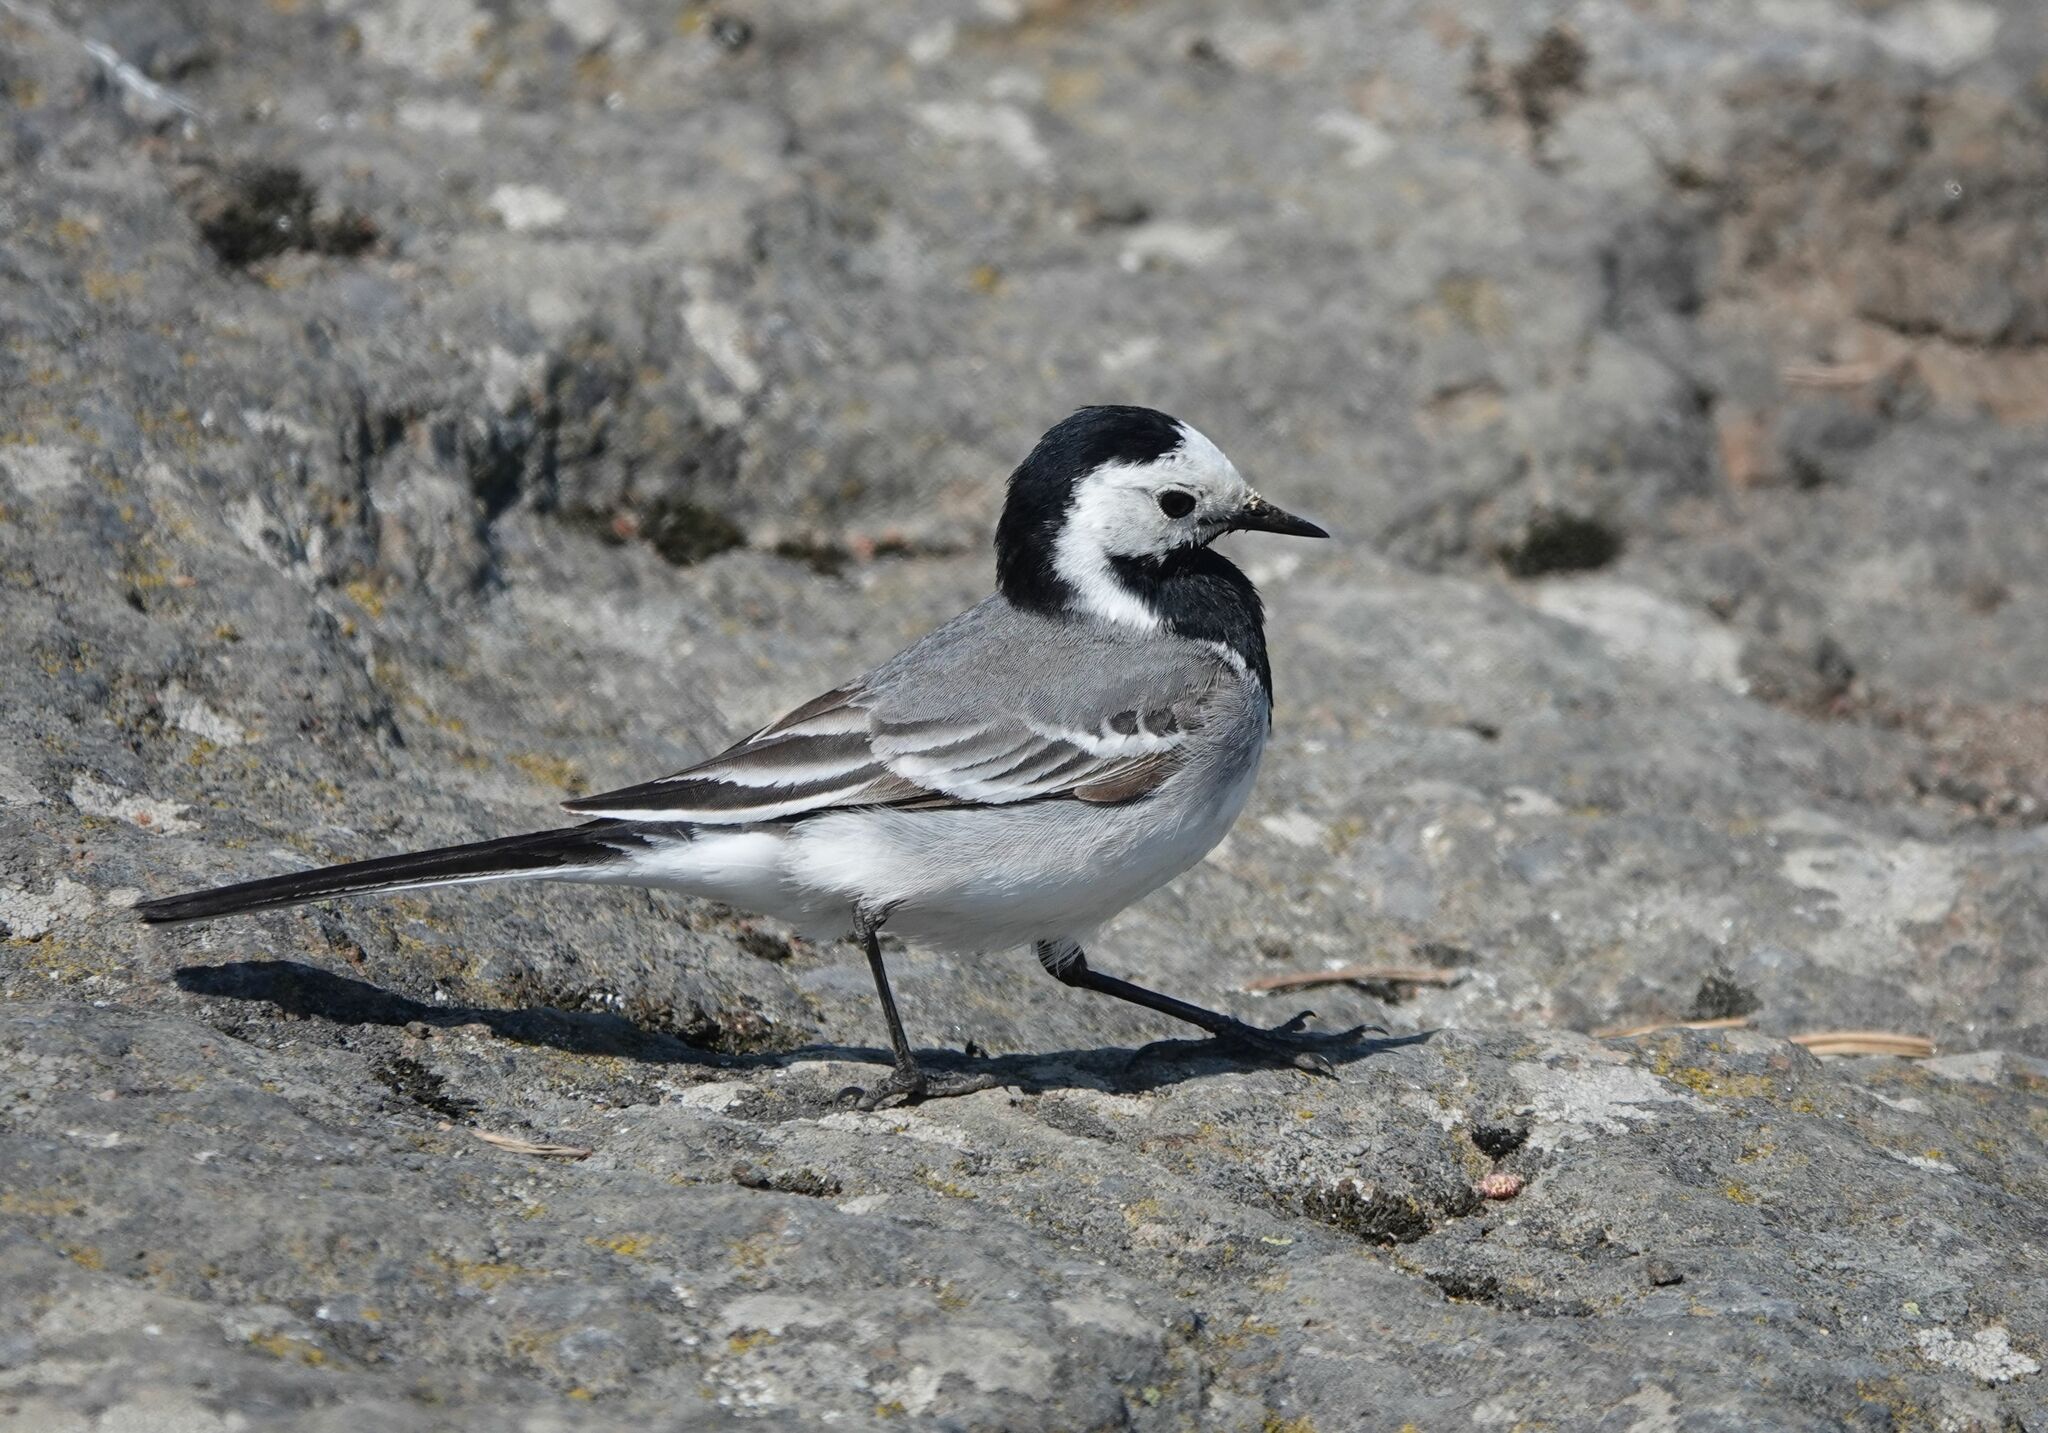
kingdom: Animalia
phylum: Chordata
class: Aves
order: Passeriformes
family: Motacillidae
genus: Motacilla
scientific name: Motacilla alba
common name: White wagtail
